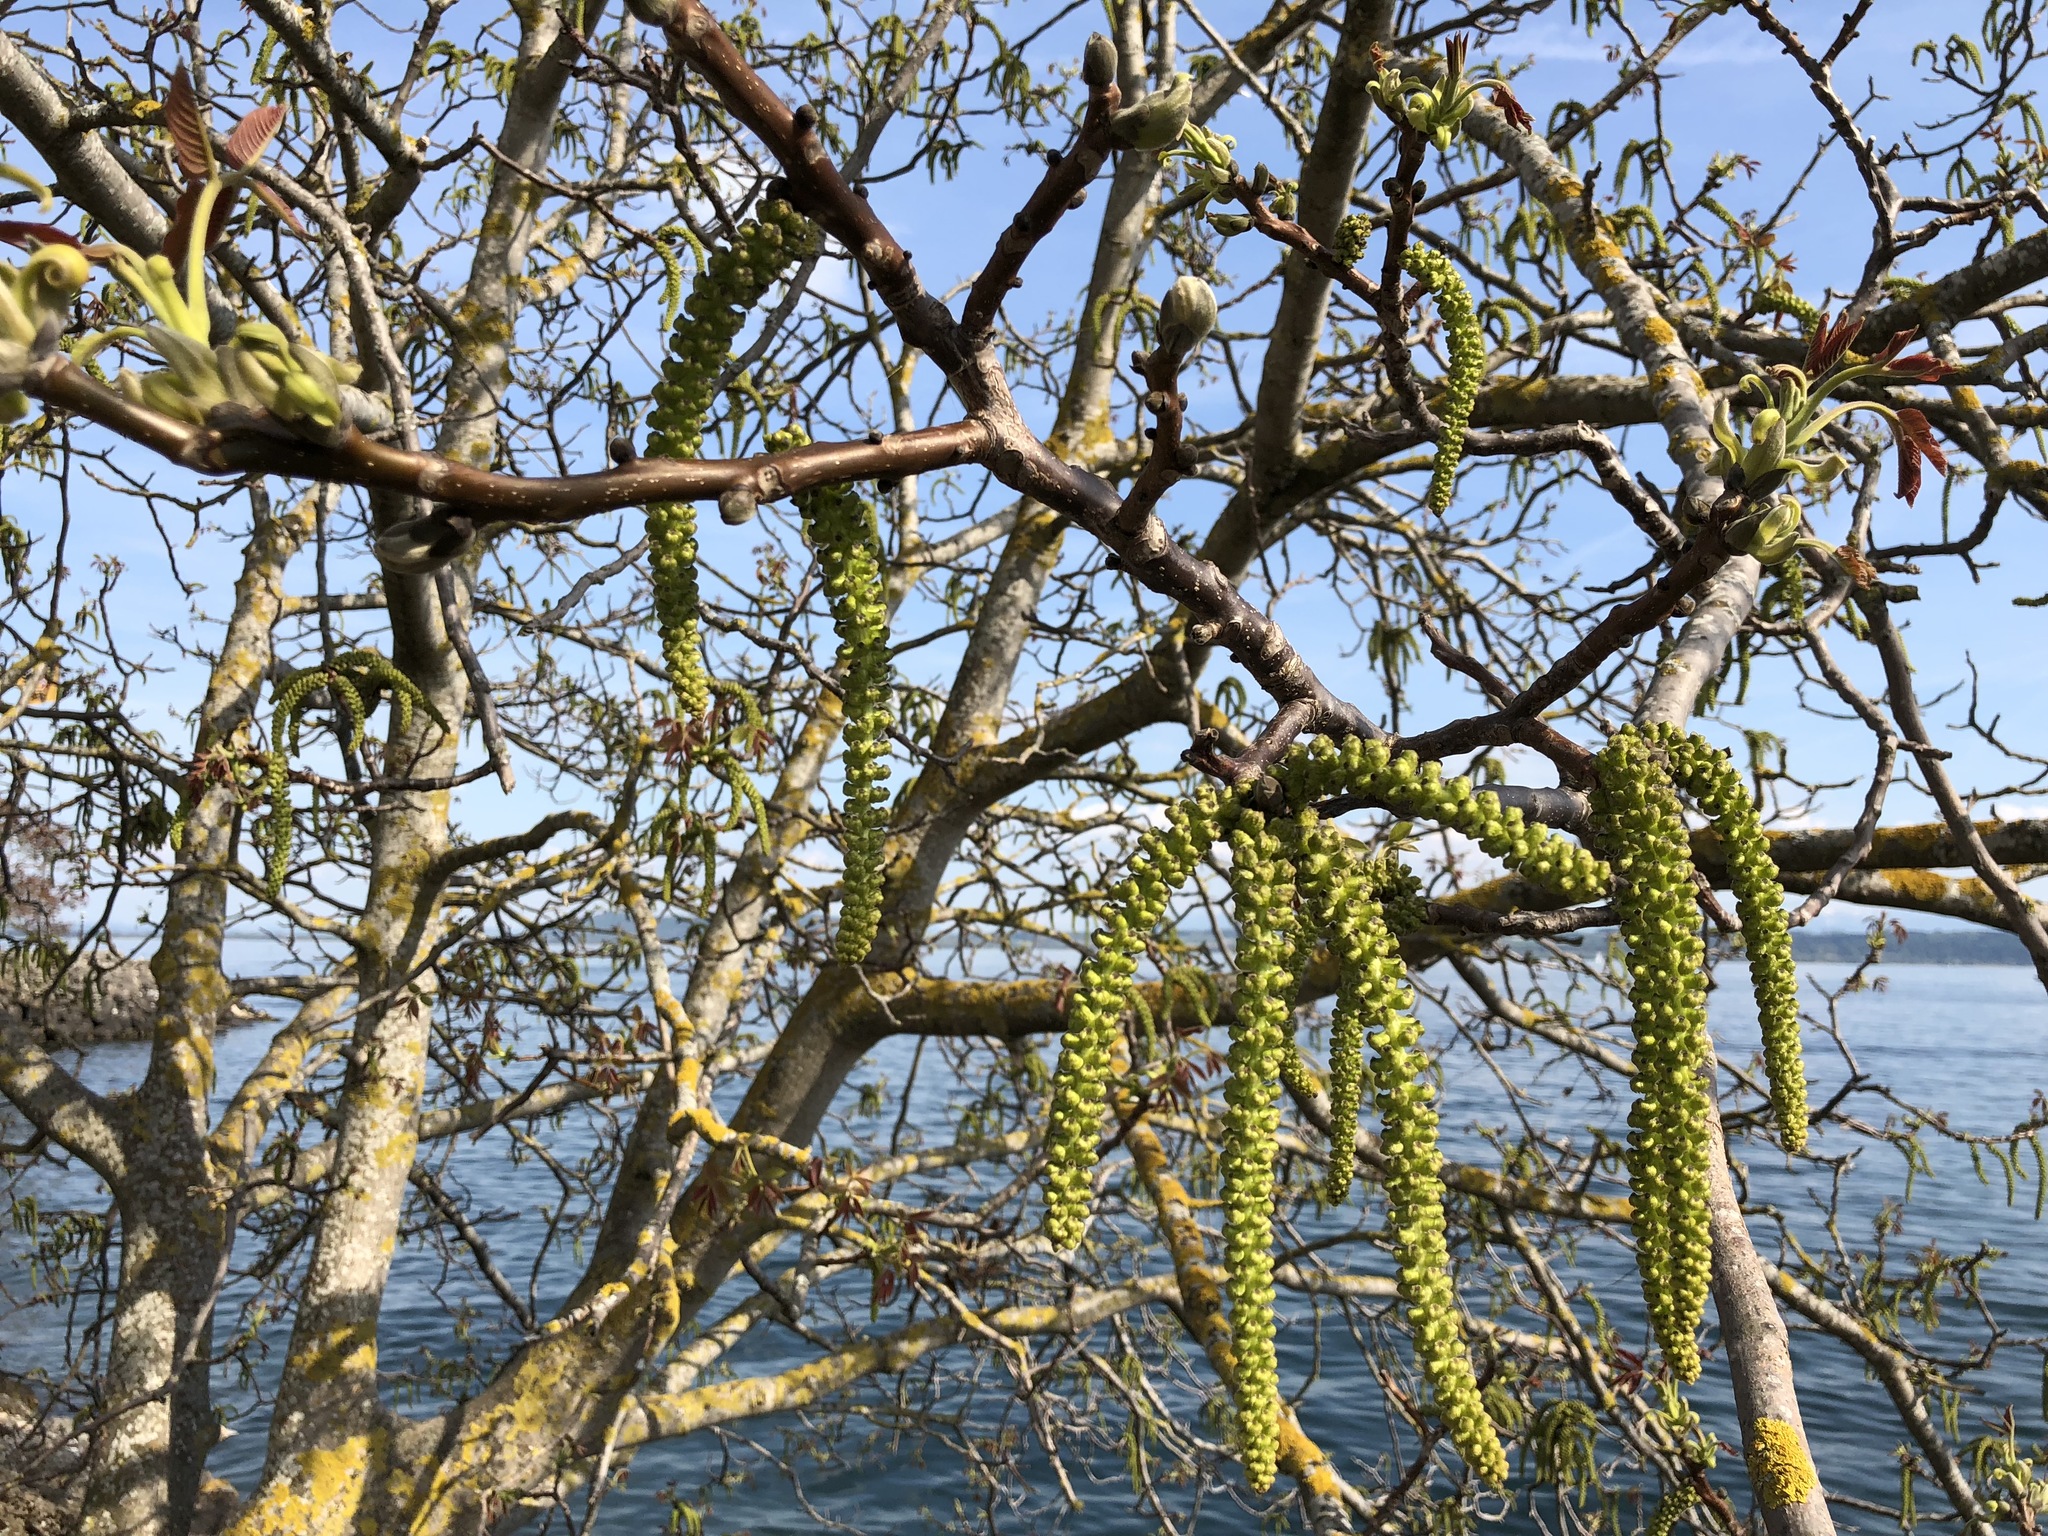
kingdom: Plantae
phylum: Tracheophyta
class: Magnoliopsida
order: Fagales
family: Juglandaceae
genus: Juglans
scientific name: Juglans regia
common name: Walnut
